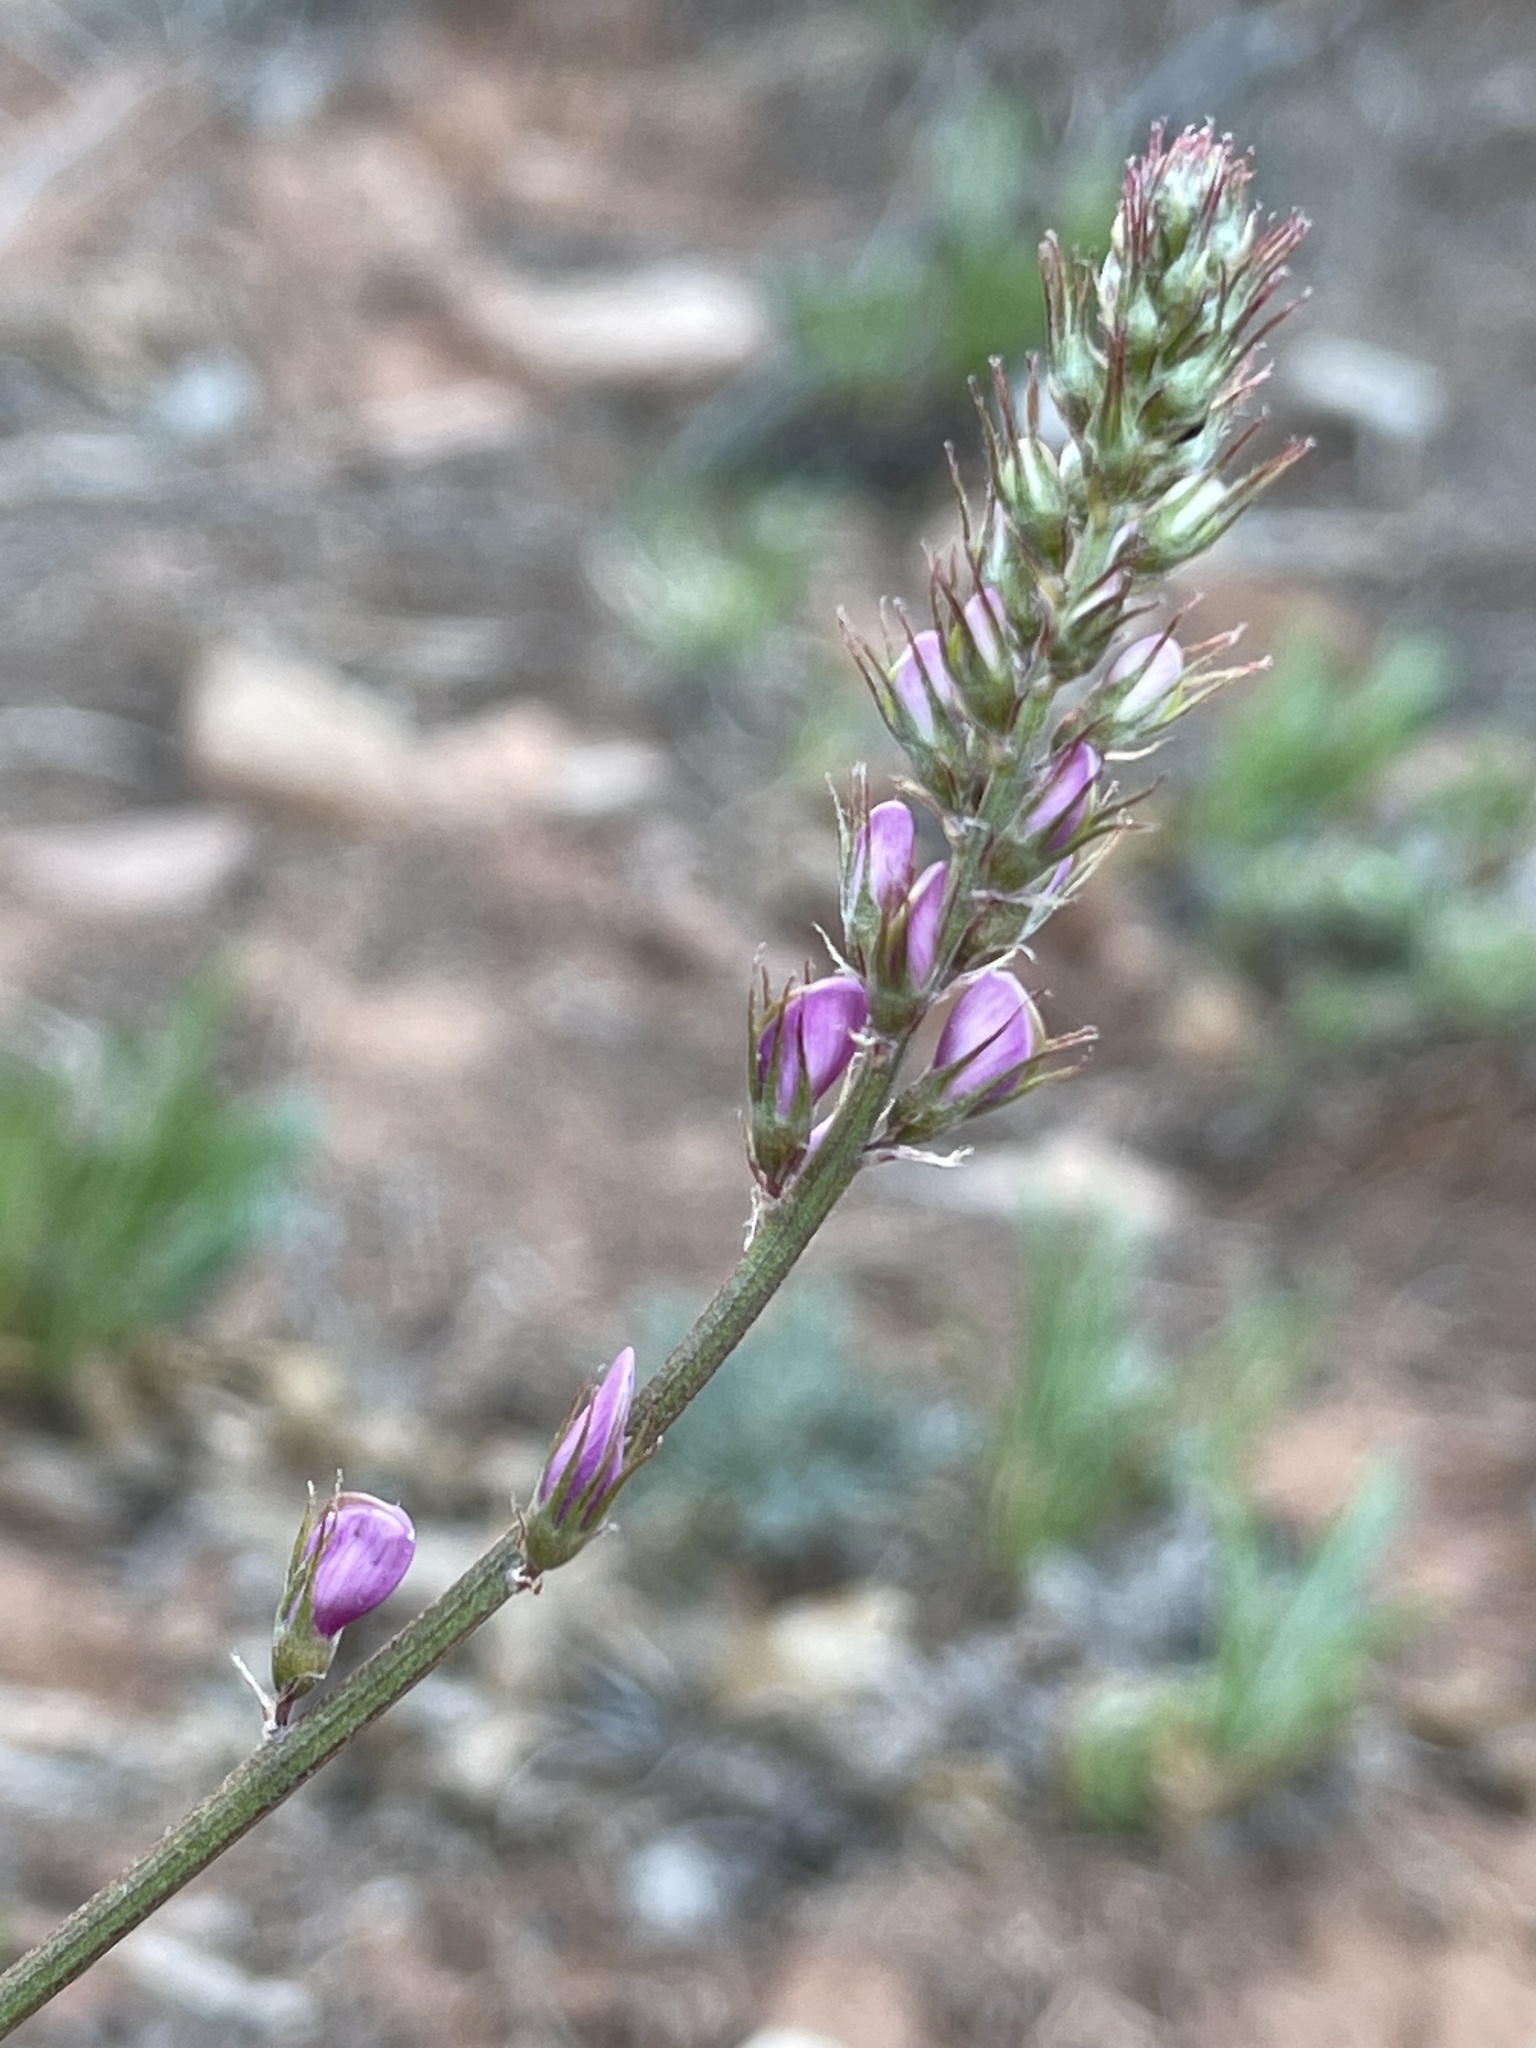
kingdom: Plantae
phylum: Tracheophyta
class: Magnoliopsida
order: Fabales
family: Fabaceae
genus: Hedysarum
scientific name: Hedysarum boreale
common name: Northern sweet-vetch
